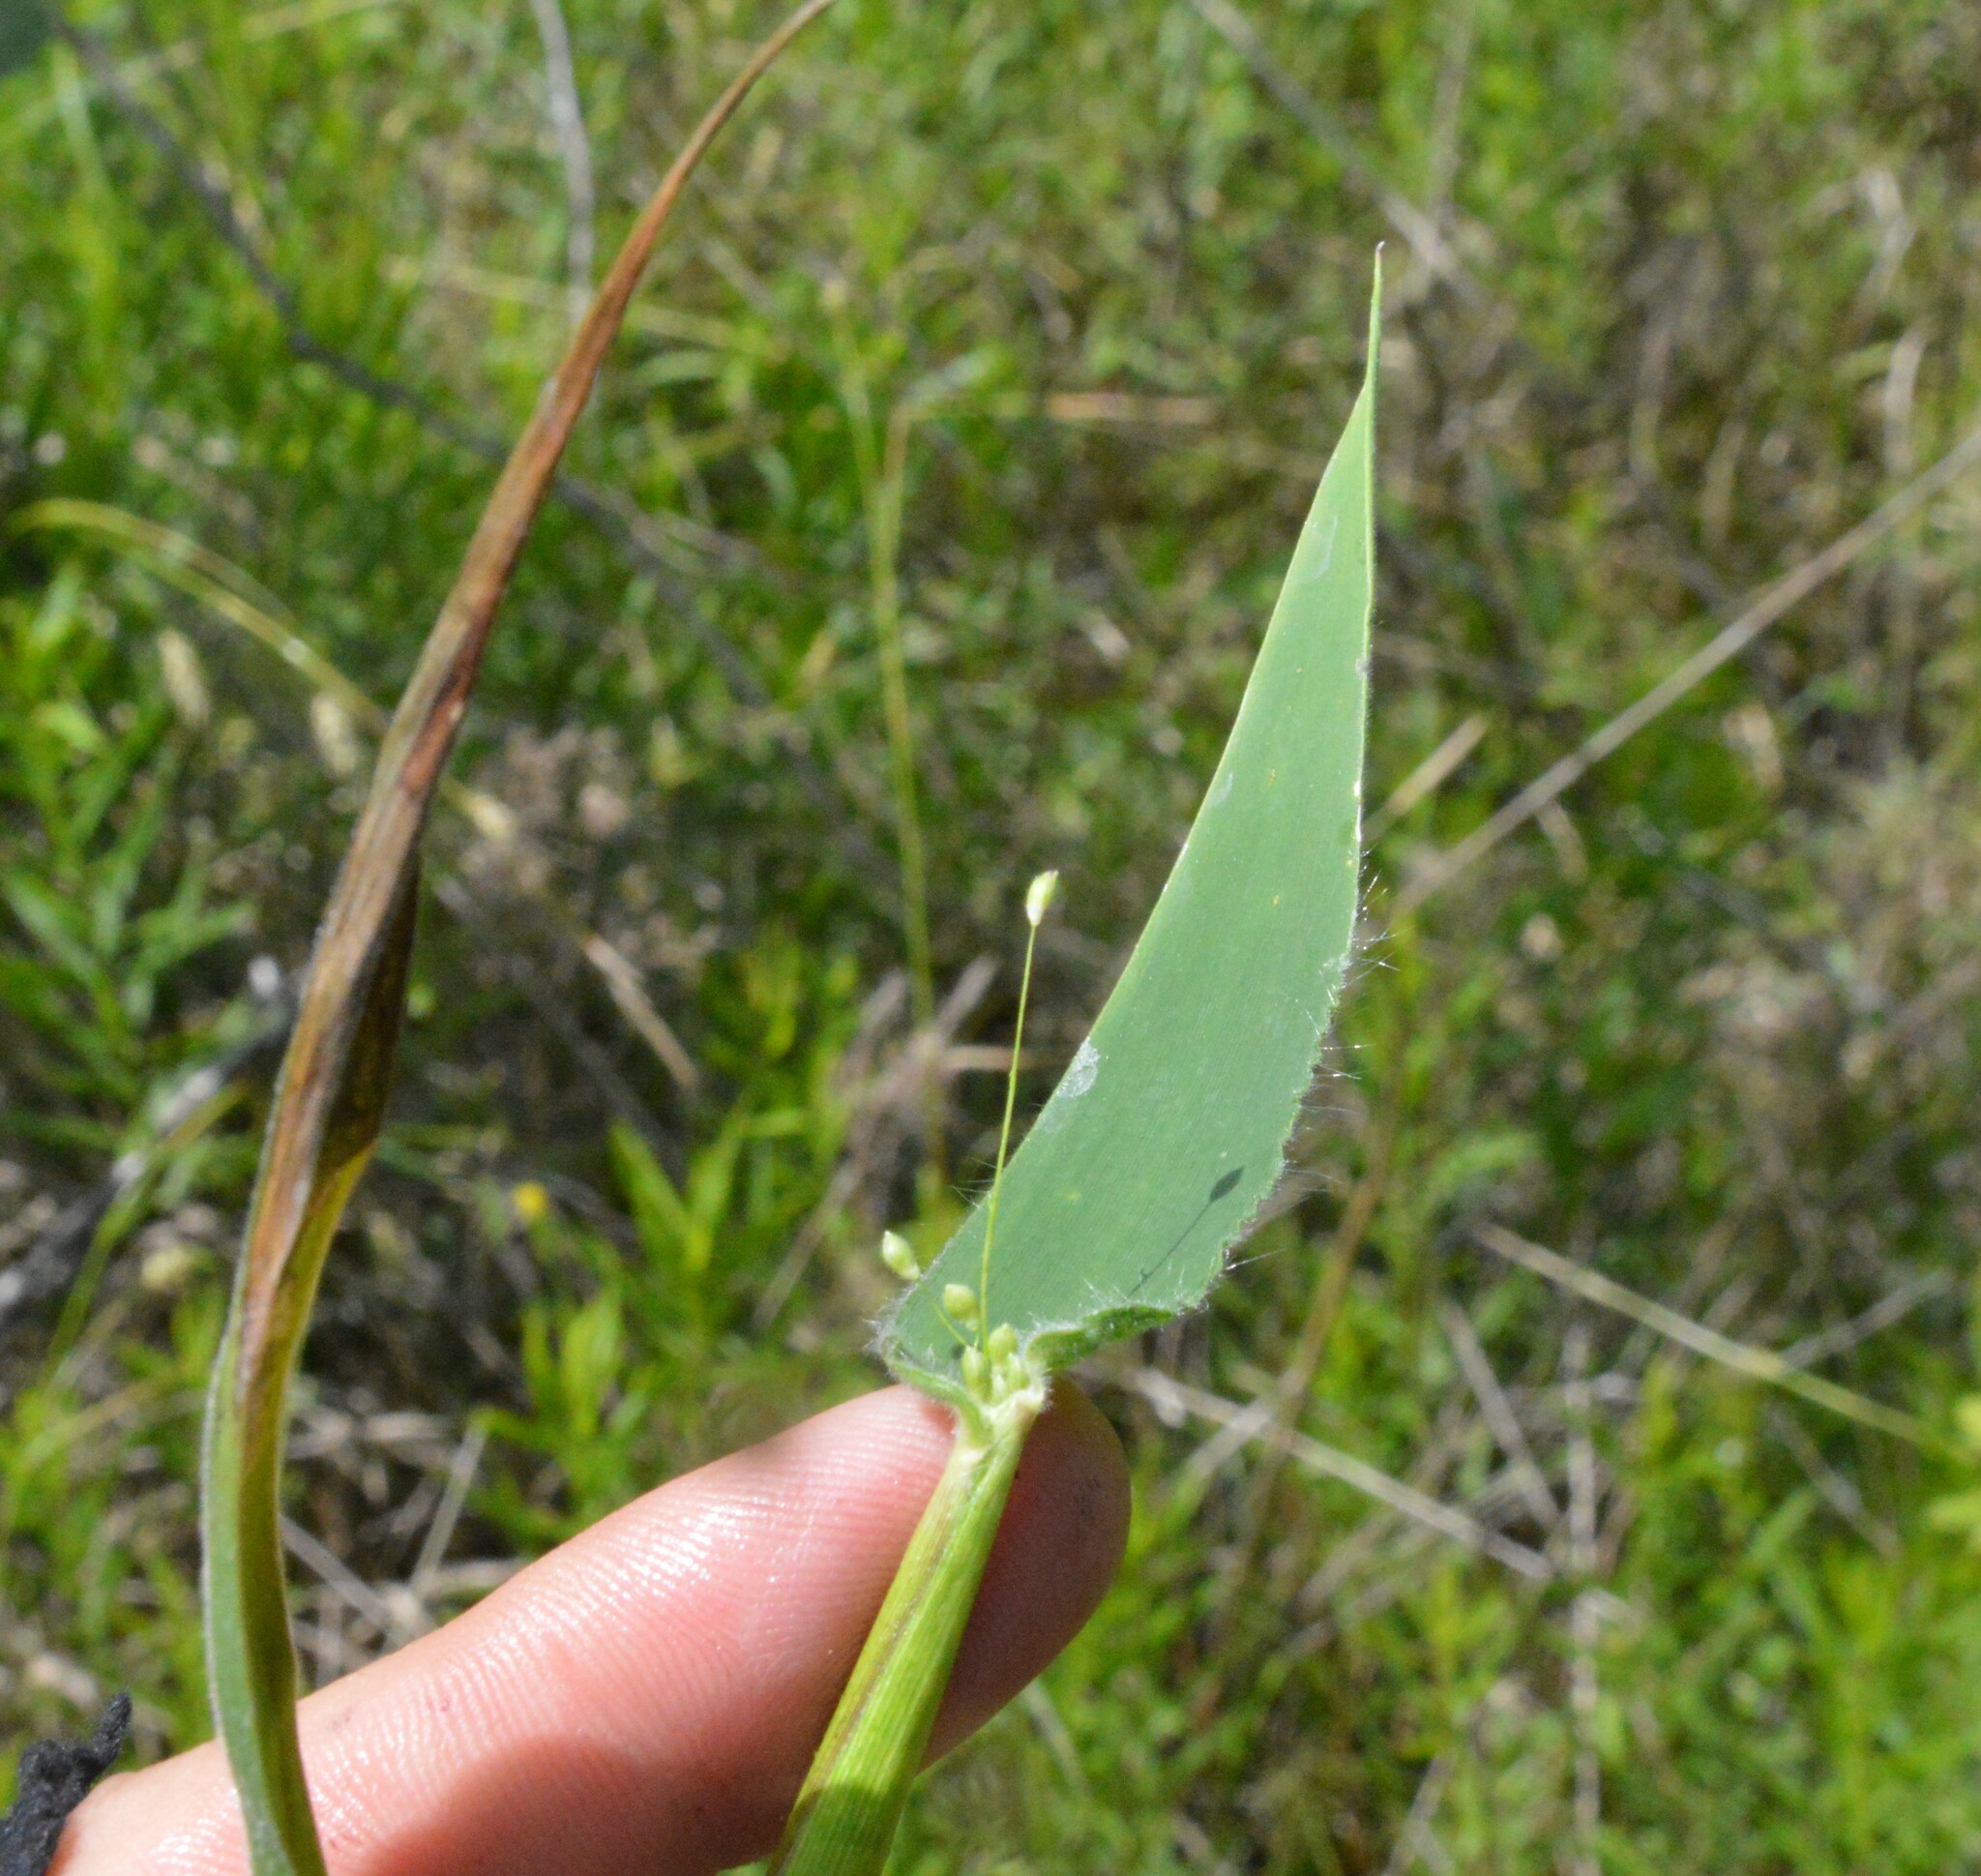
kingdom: Plantae
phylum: Tracheophyta
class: Liliopsida
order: Poales
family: Poaceae
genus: Dichanthelium
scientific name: Dichanthelium scoparium
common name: Velvety panic grass
